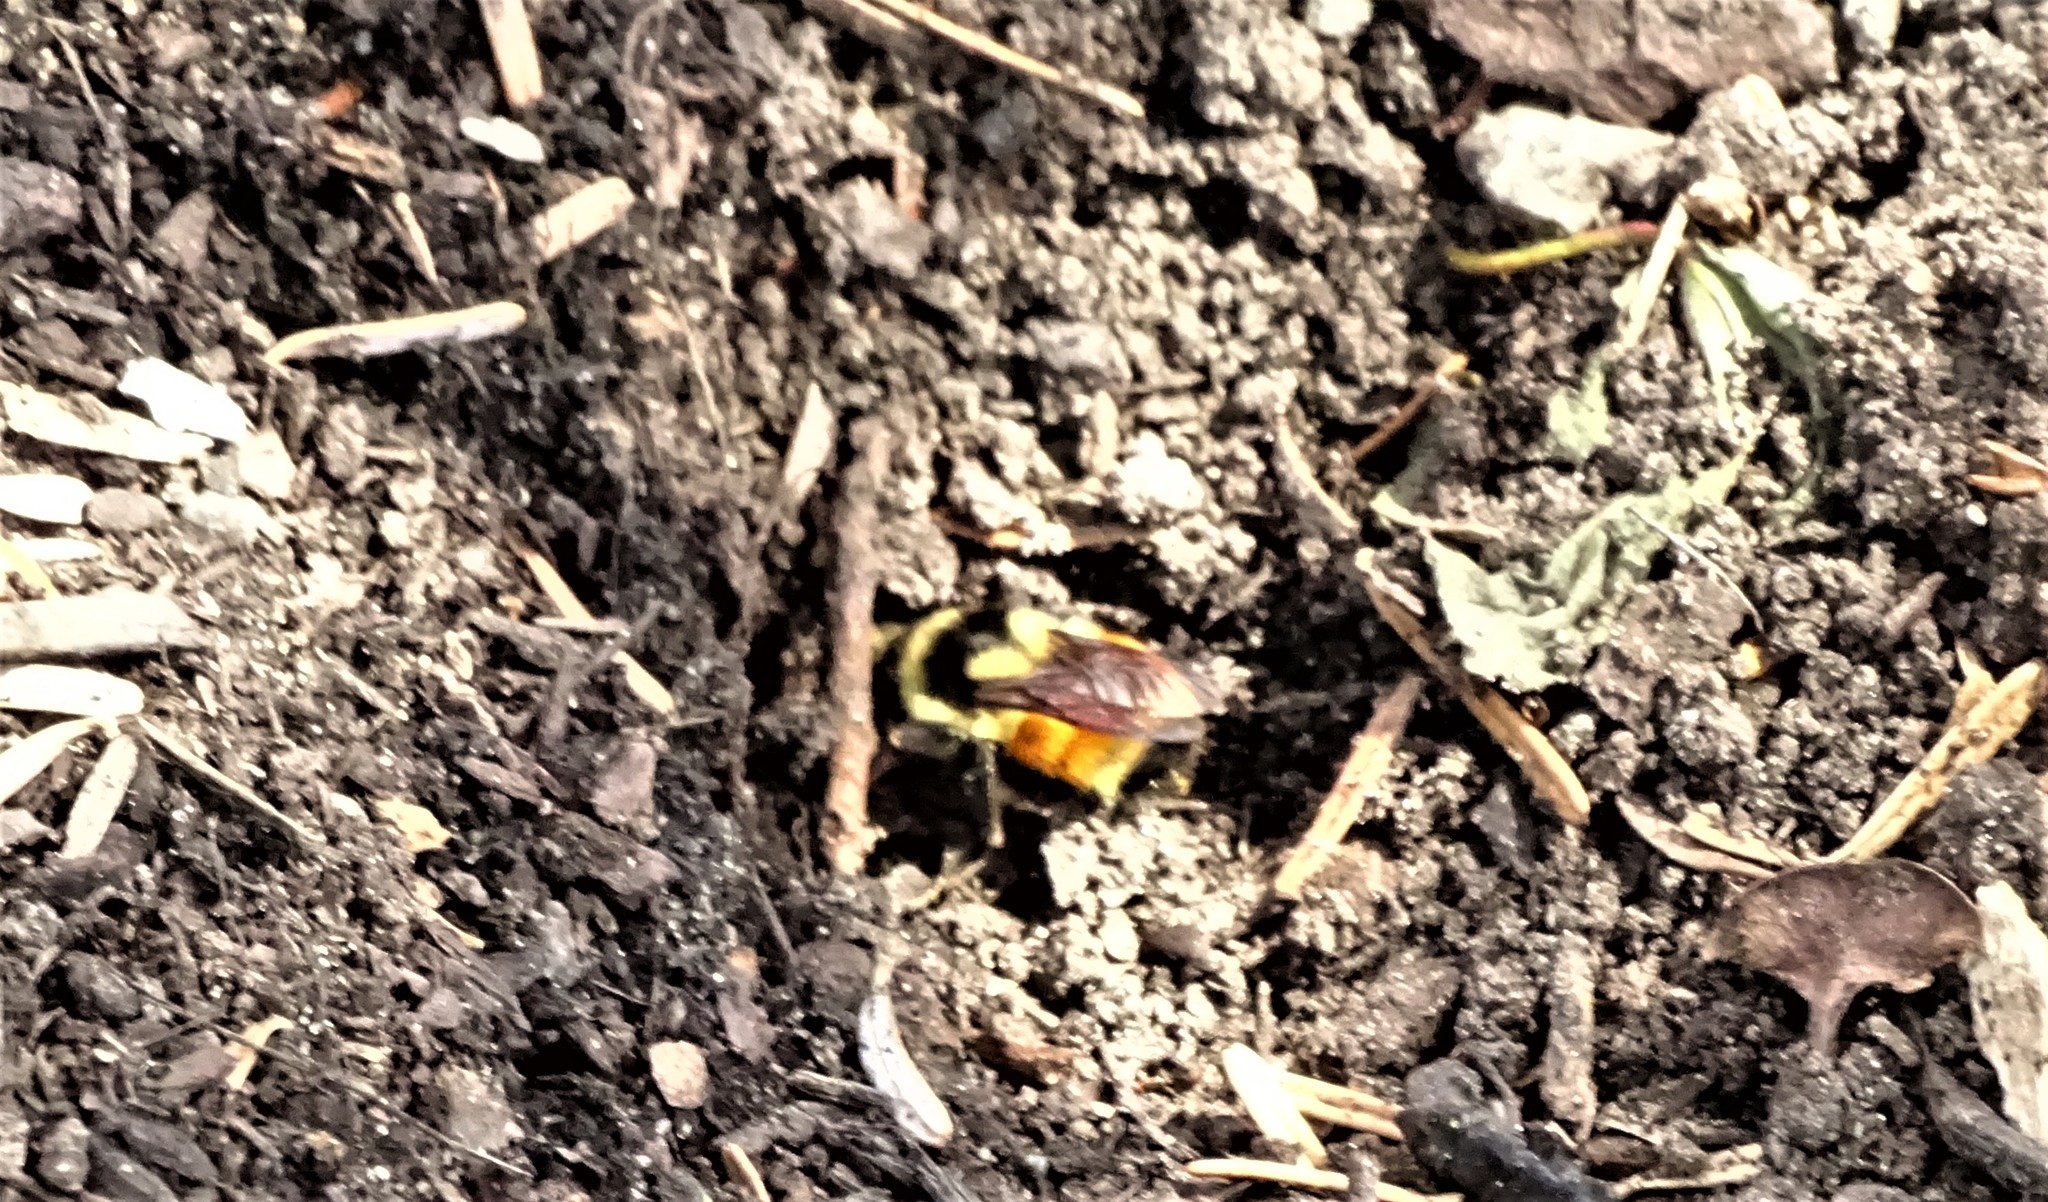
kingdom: Animalia
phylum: Arthropoda
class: Insecta
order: Hymenoptera
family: Apidae
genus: Bombus
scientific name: Bombus ternarius
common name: Tri-colored bumble bee
